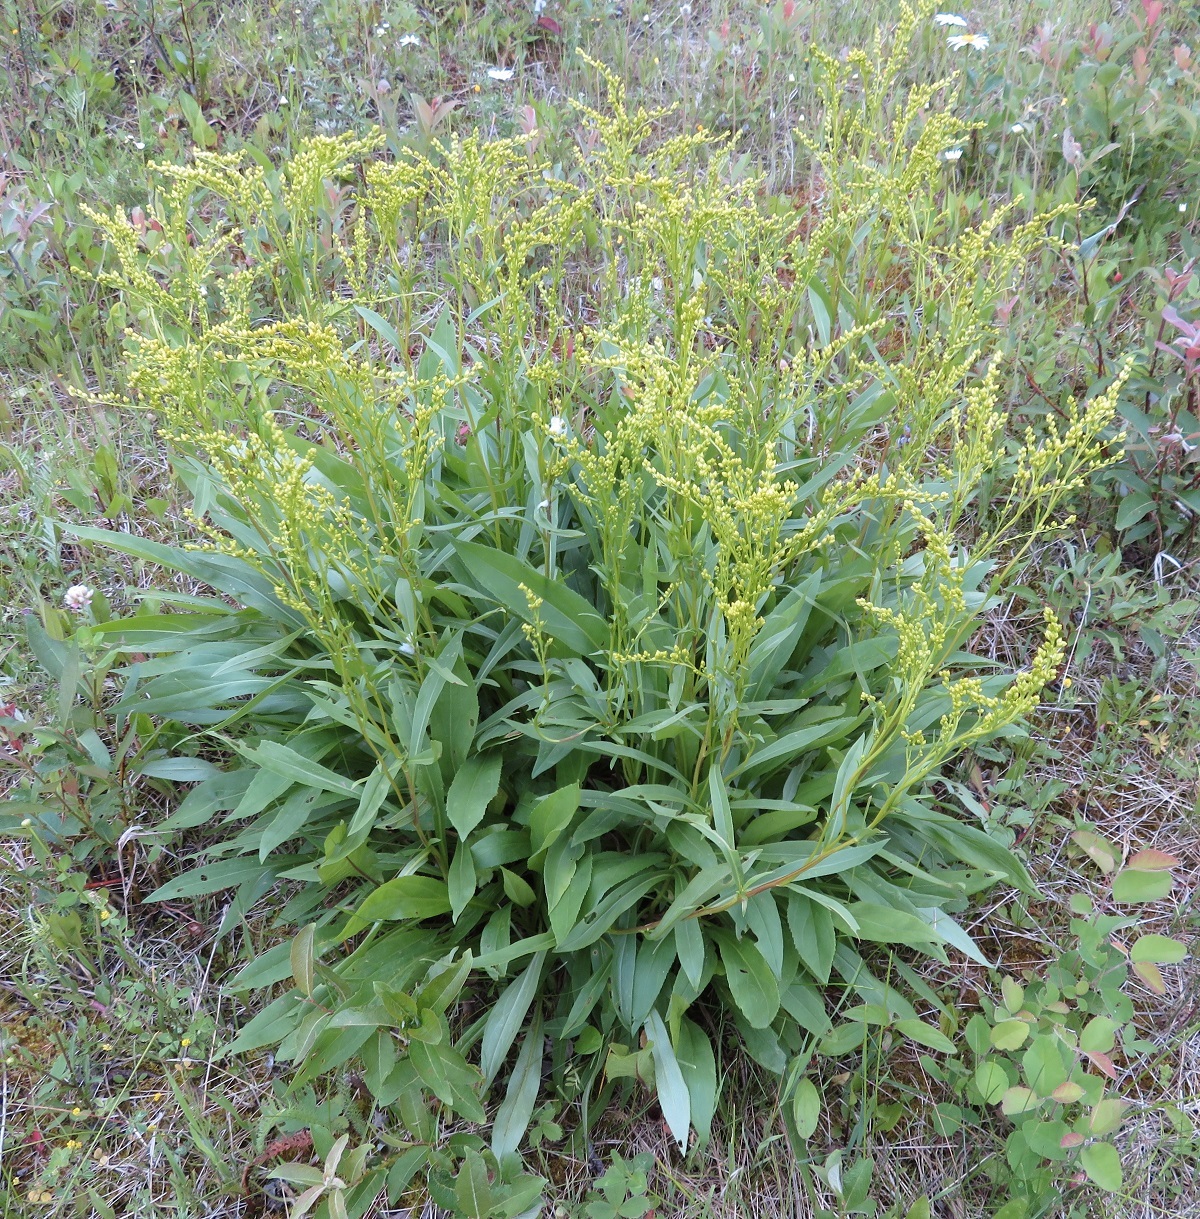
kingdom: Plantae
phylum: Tracheophyta
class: Magnoliopsida
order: Asterales
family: Asteraceae
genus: Solidago
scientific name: Solidago juncea
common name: Early goldenrod
